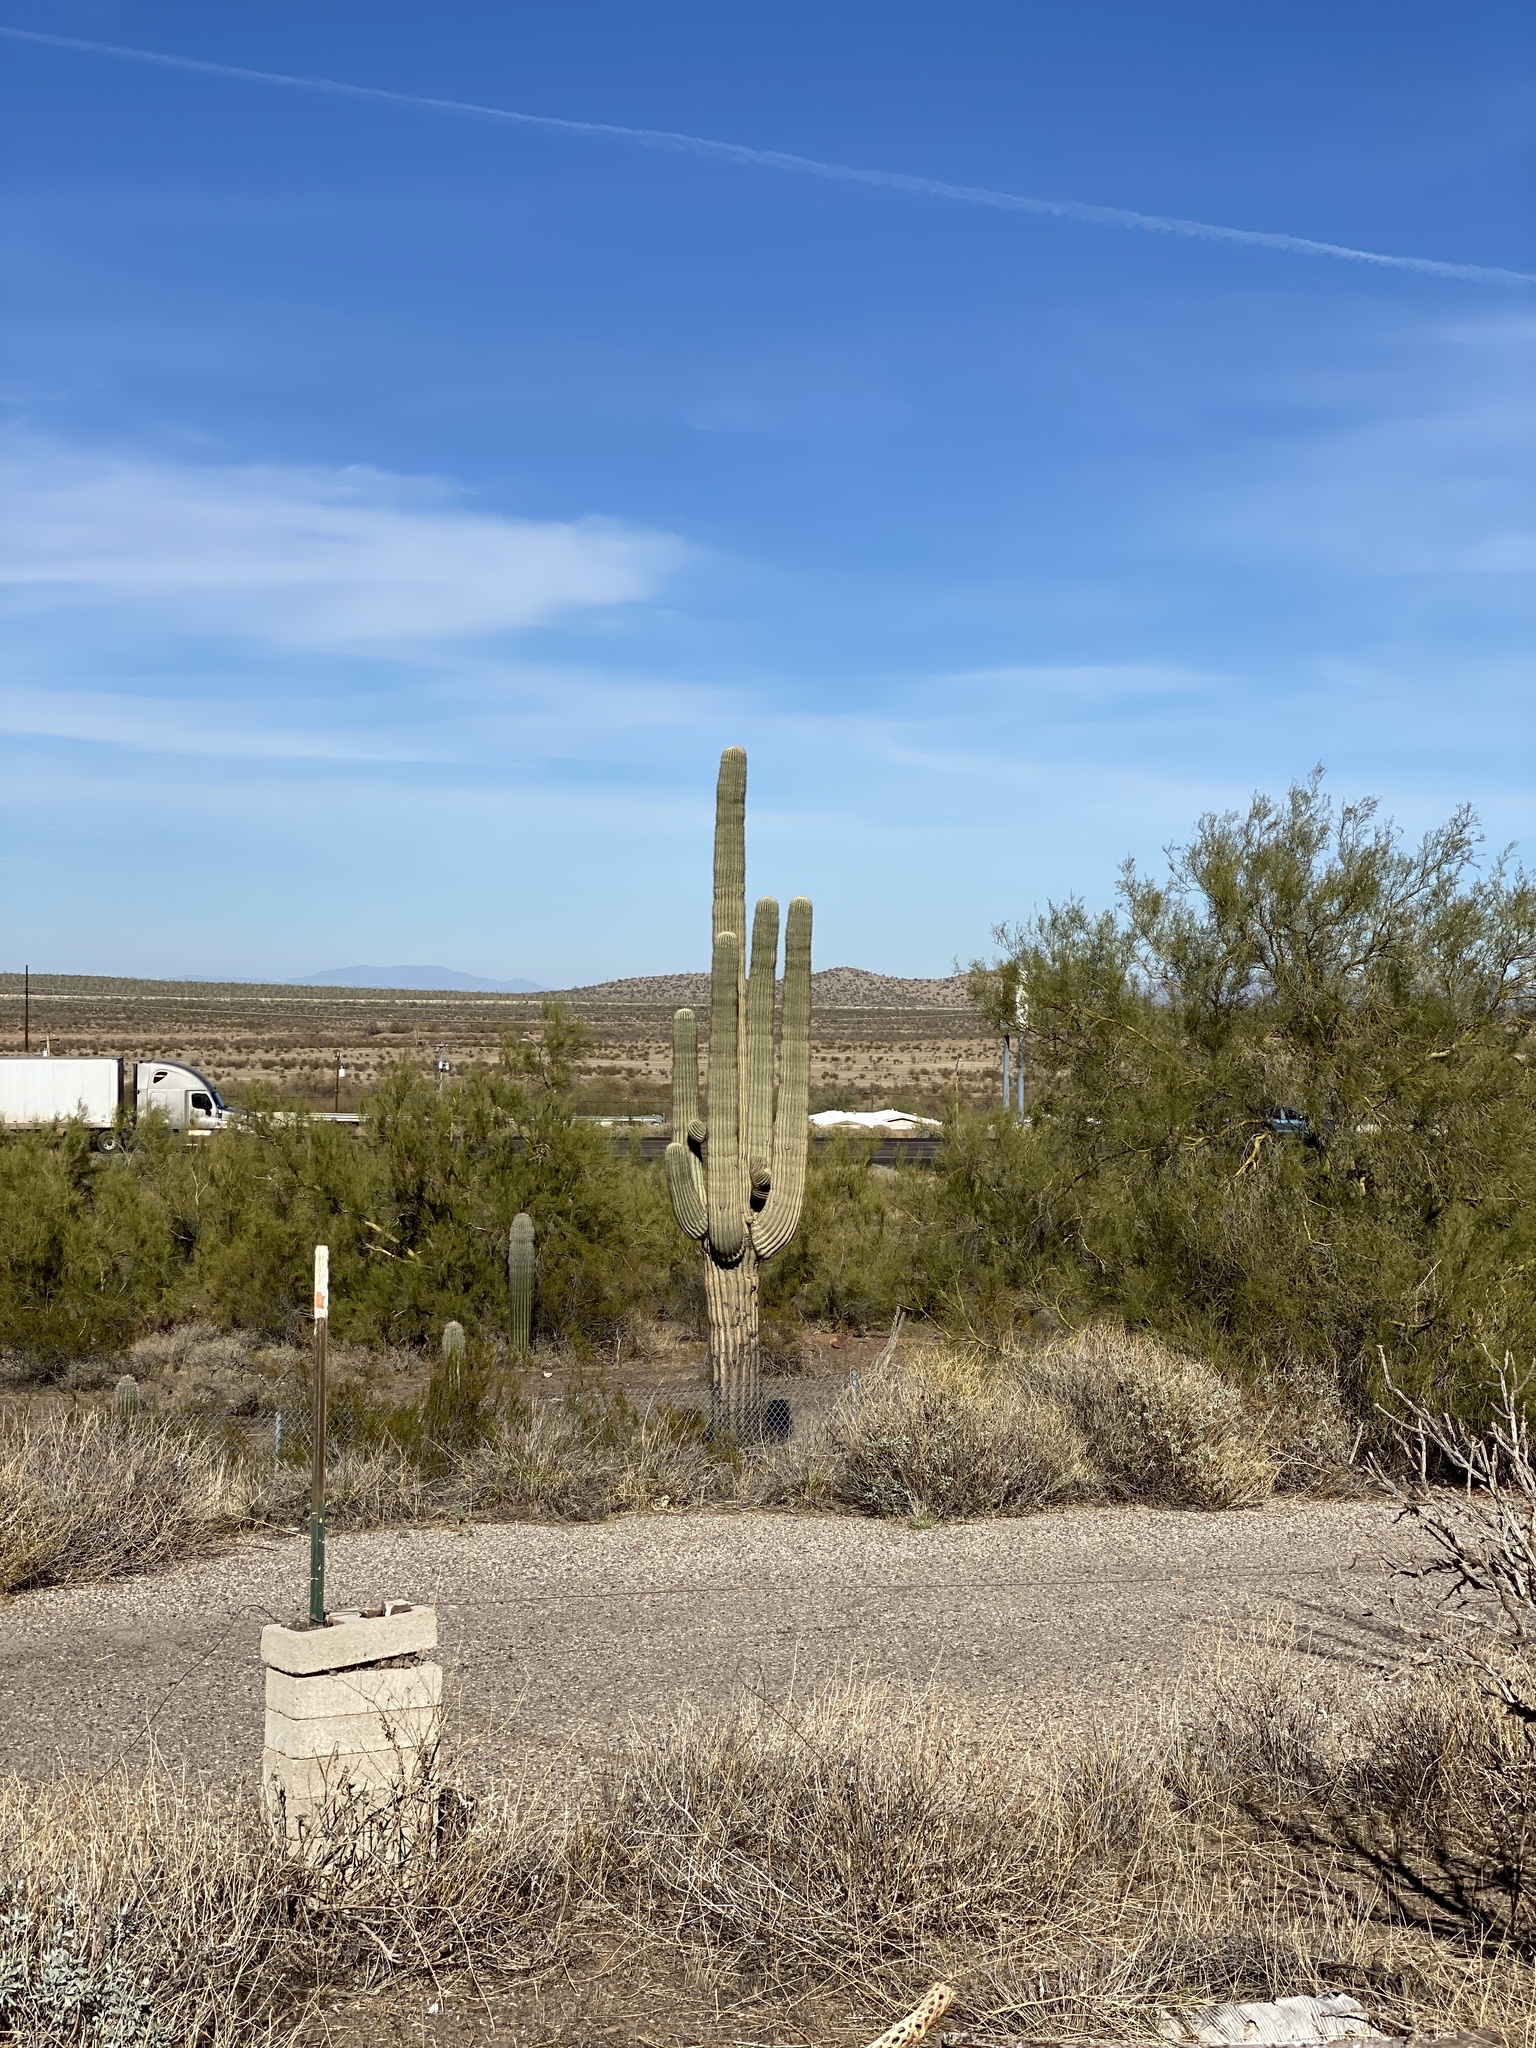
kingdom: Plantae
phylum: Tracheophyta
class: Magnoliopsida
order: Caryophyllales
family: Cactaceae
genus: Carnegiea
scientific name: Carnegiea gigantea
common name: Saguaro
